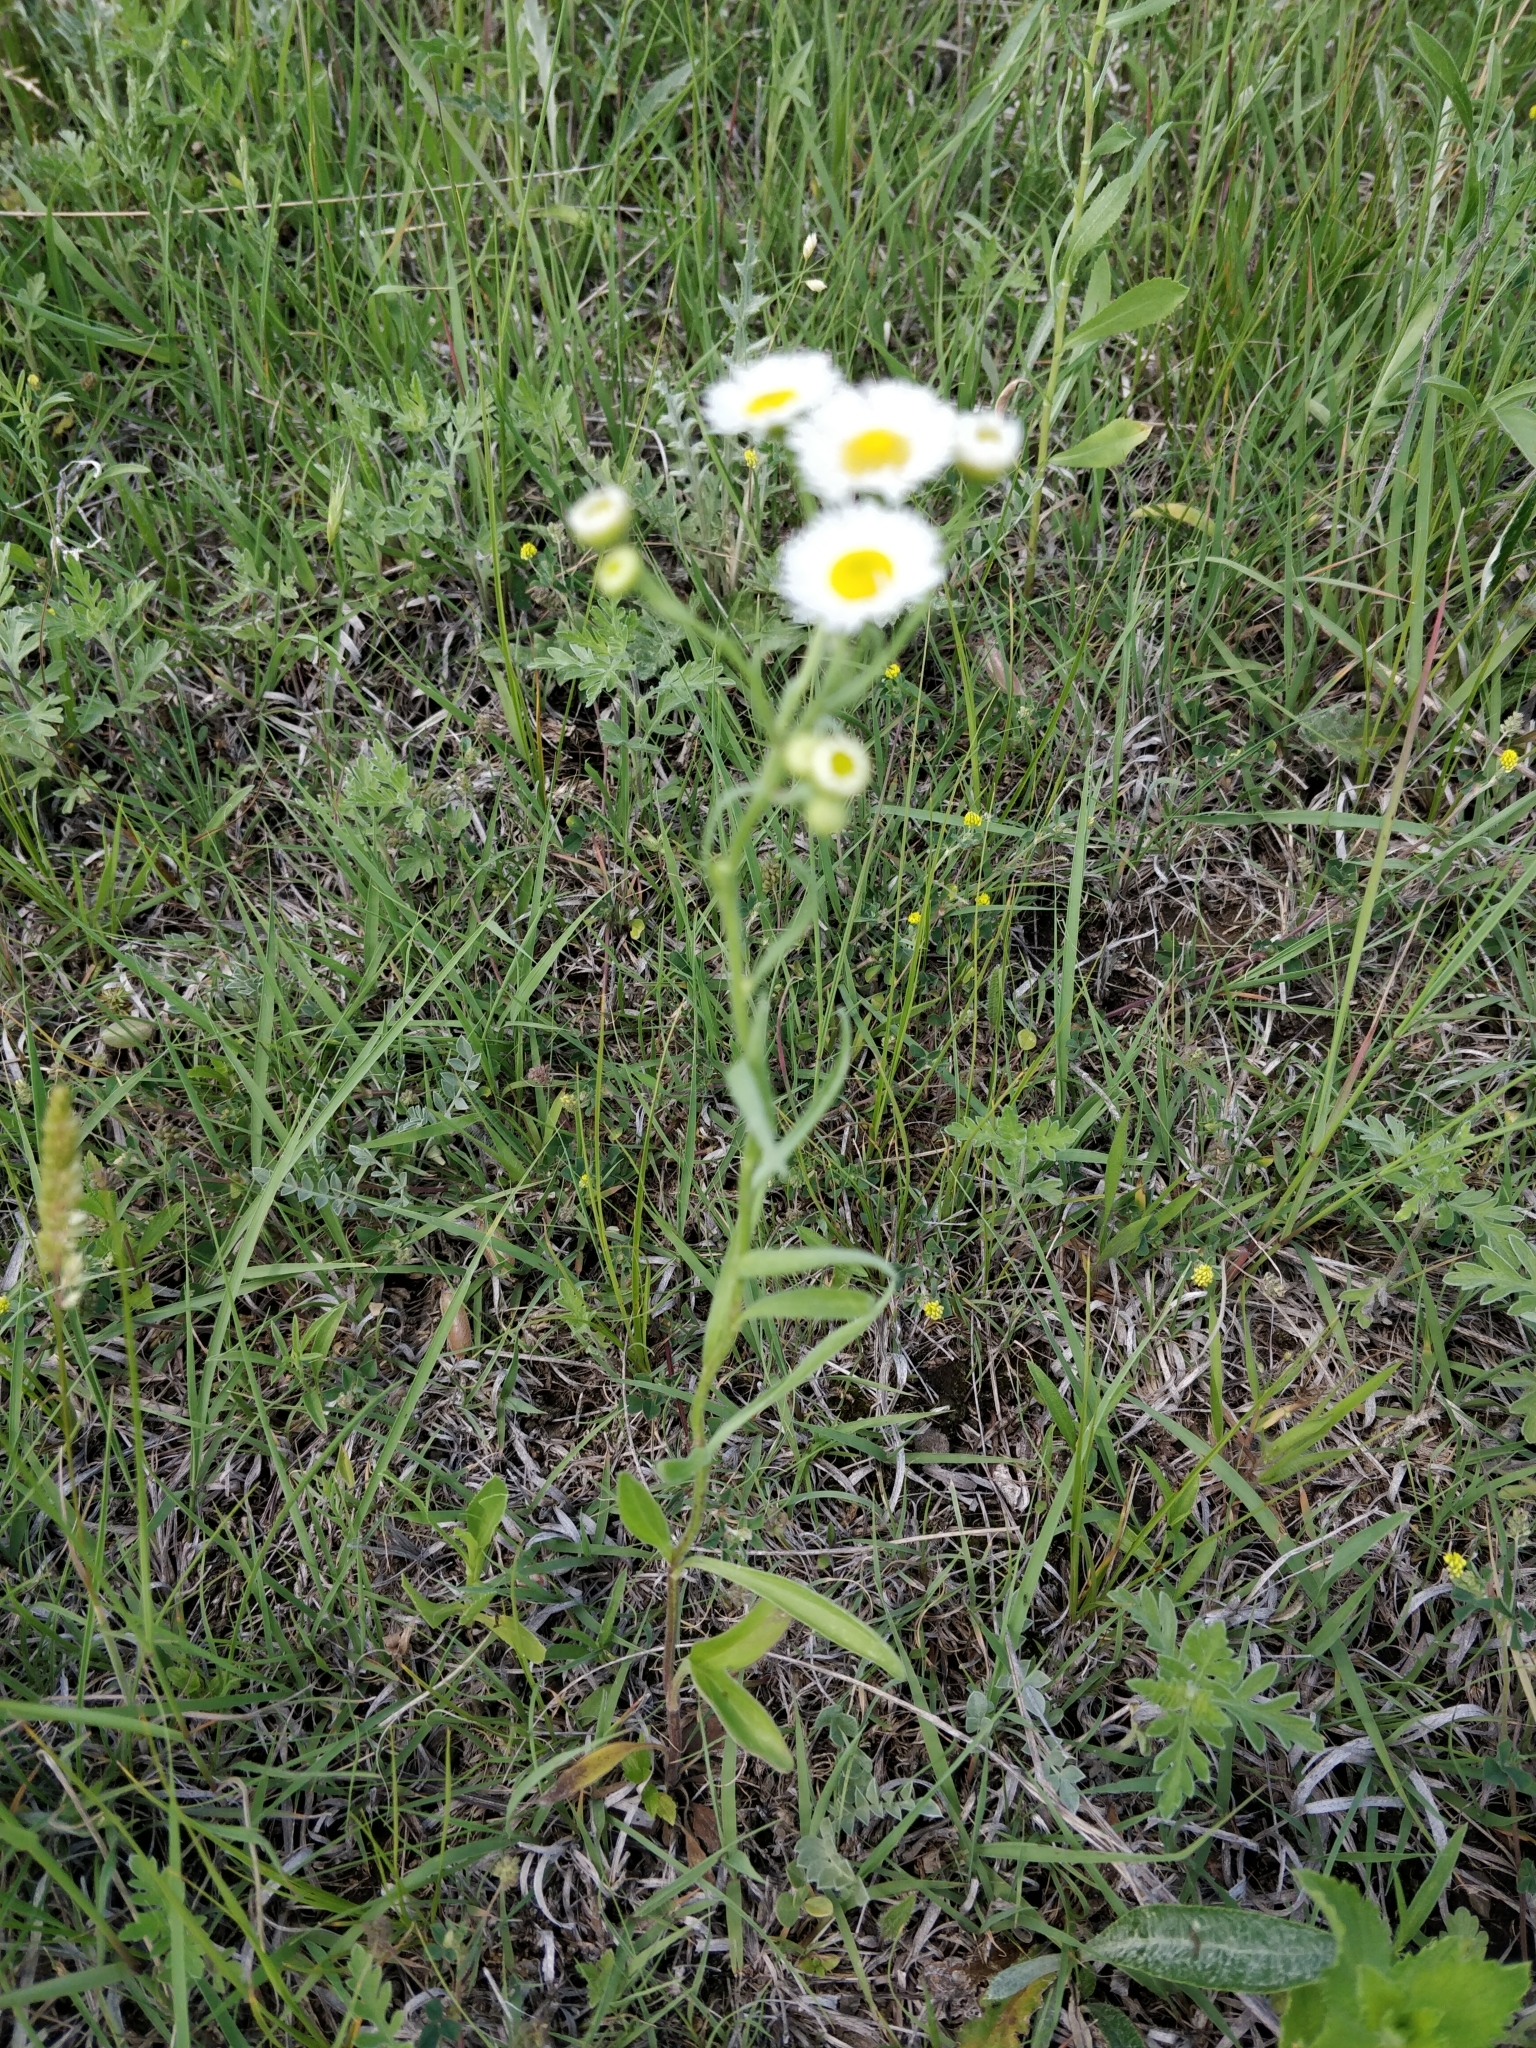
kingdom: Plantae
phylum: Tracheophyta
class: Magnoliopsida
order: Asterales
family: Asteraceae
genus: Erigeron
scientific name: Erigeron strigosus
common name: Common eastern fleabane
